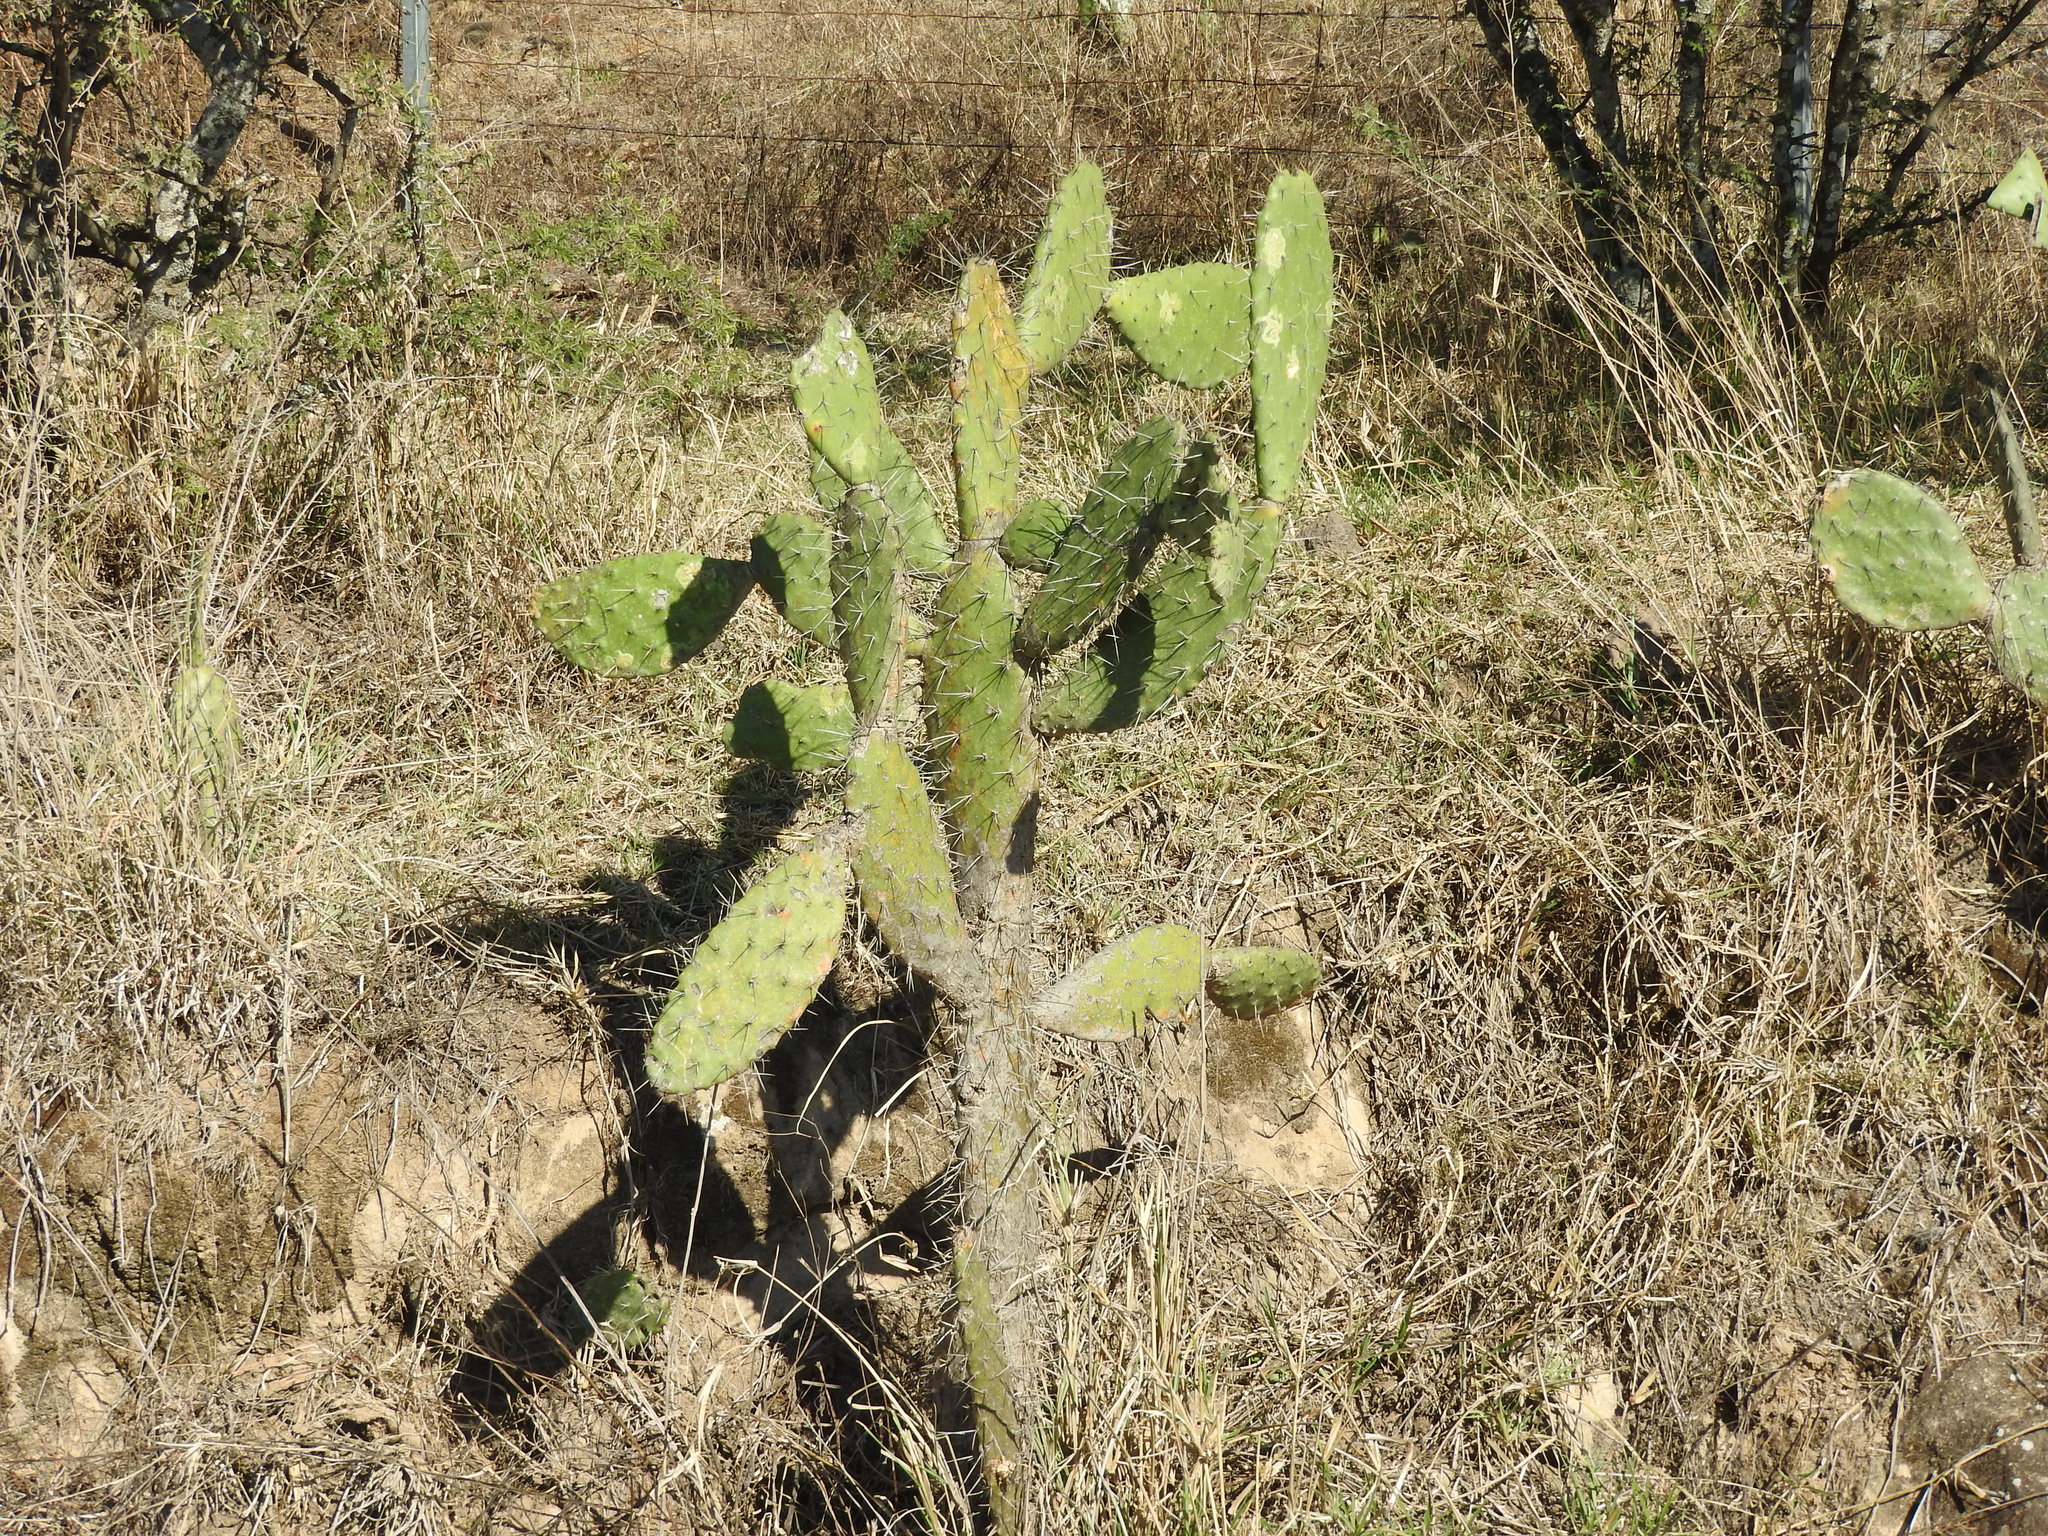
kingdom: Plantae
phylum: Tracheophyta
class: Magnoliopsida
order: Caryophyllales
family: Cactaceae
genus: Opuntia
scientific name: Opuntia tomentosa
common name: Woollyjoint pricklypear
